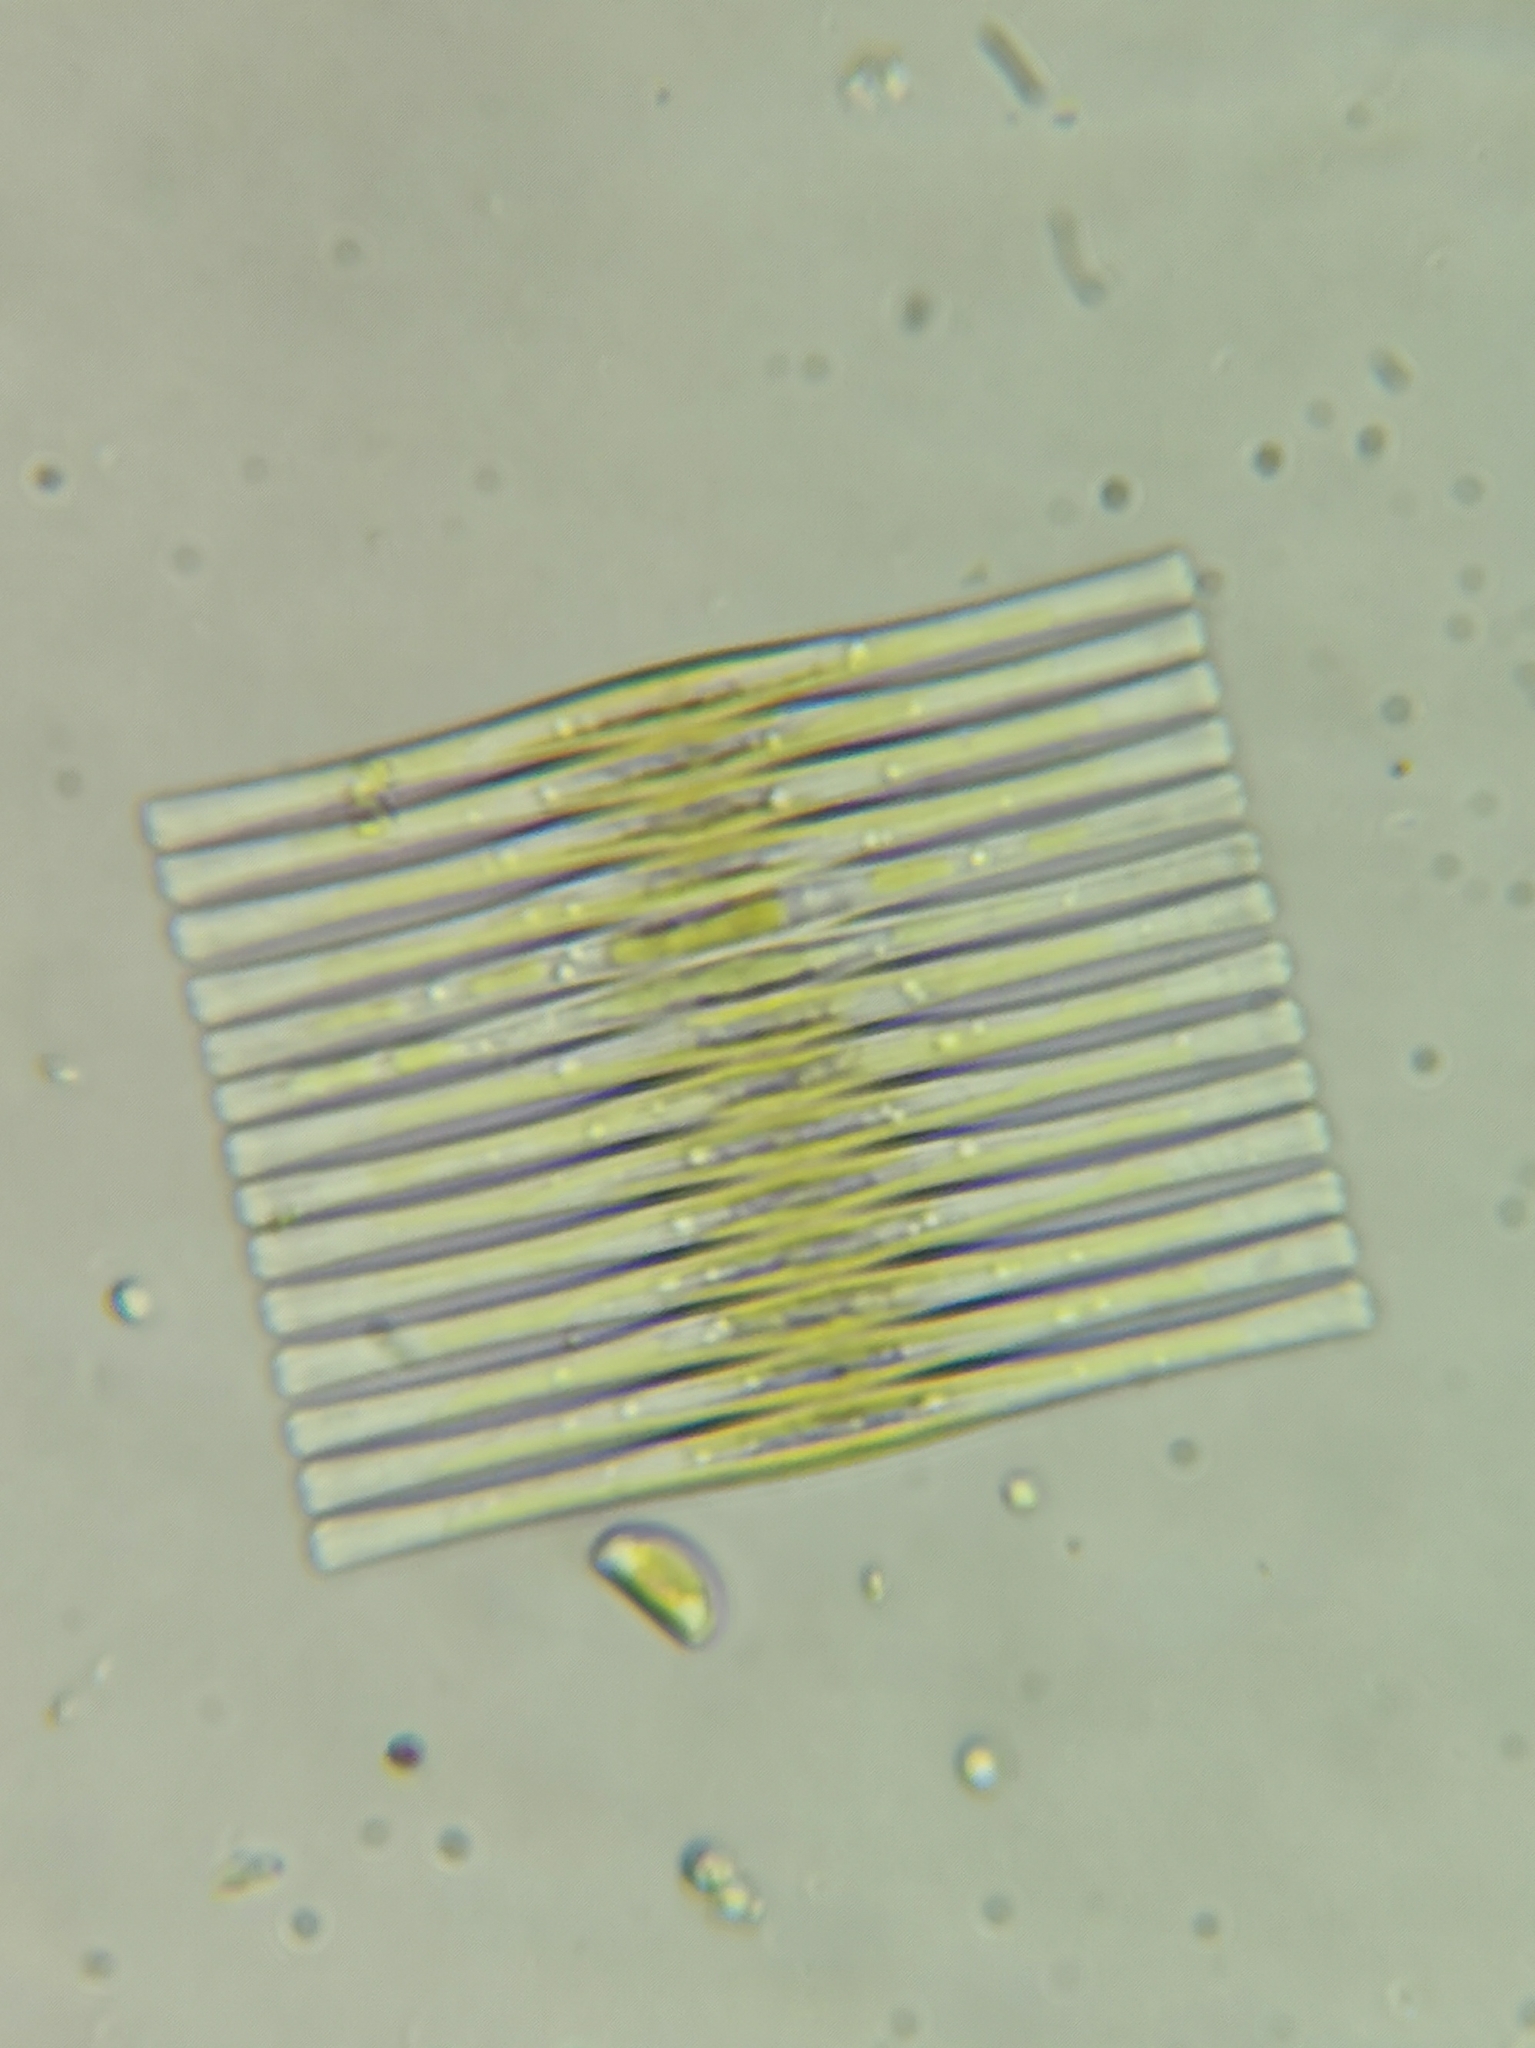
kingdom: Chromista
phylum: Ochrophyta
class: Bacillariophyceae
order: Fragilariales
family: Fragilariaceae
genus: Fragilaria
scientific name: Fragilaria crotonensis
